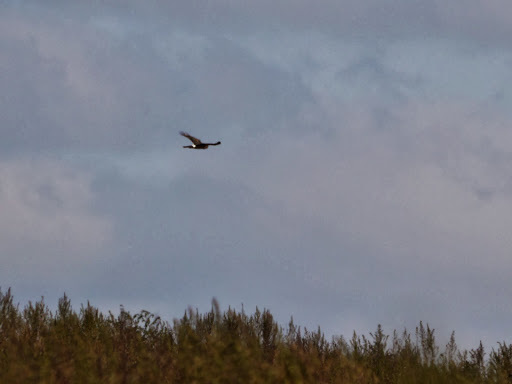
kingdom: Animalia
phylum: Chordata
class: Aves
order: Accipitriformes
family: Accipitridae
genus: Circus
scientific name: Circus cyaneus
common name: Hen harrier
